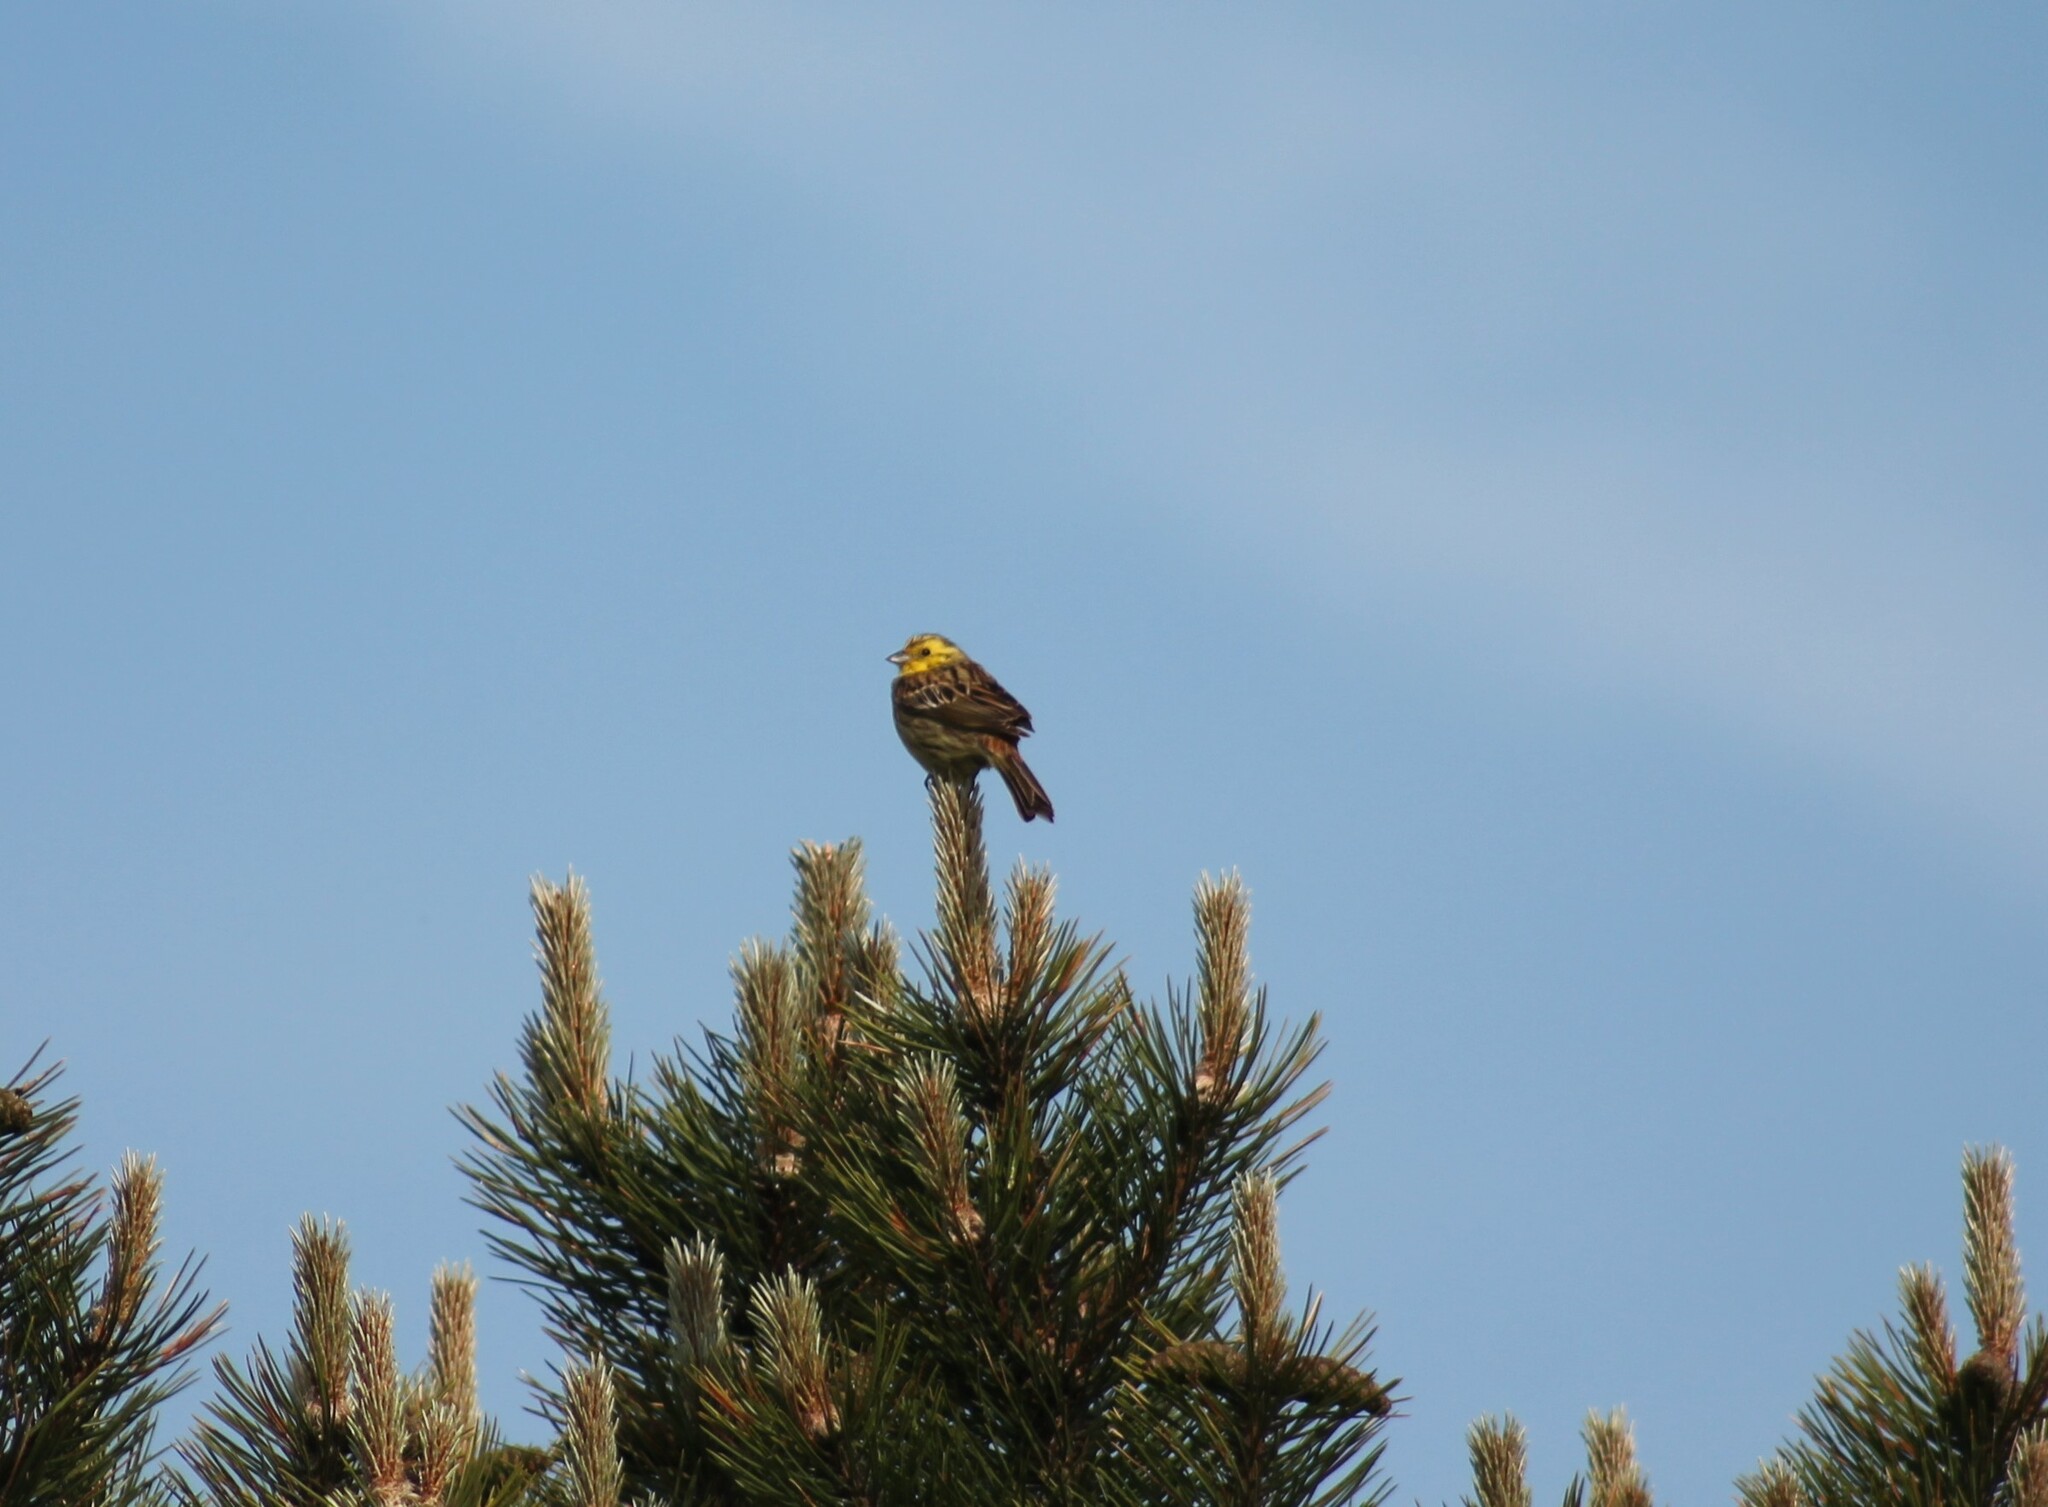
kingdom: Animalia
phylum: Chordata
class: Aves
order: Passeriformes
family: Emberizidae
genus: Emberiza
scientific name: Emberiza citrinella
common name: Yellowhammer
